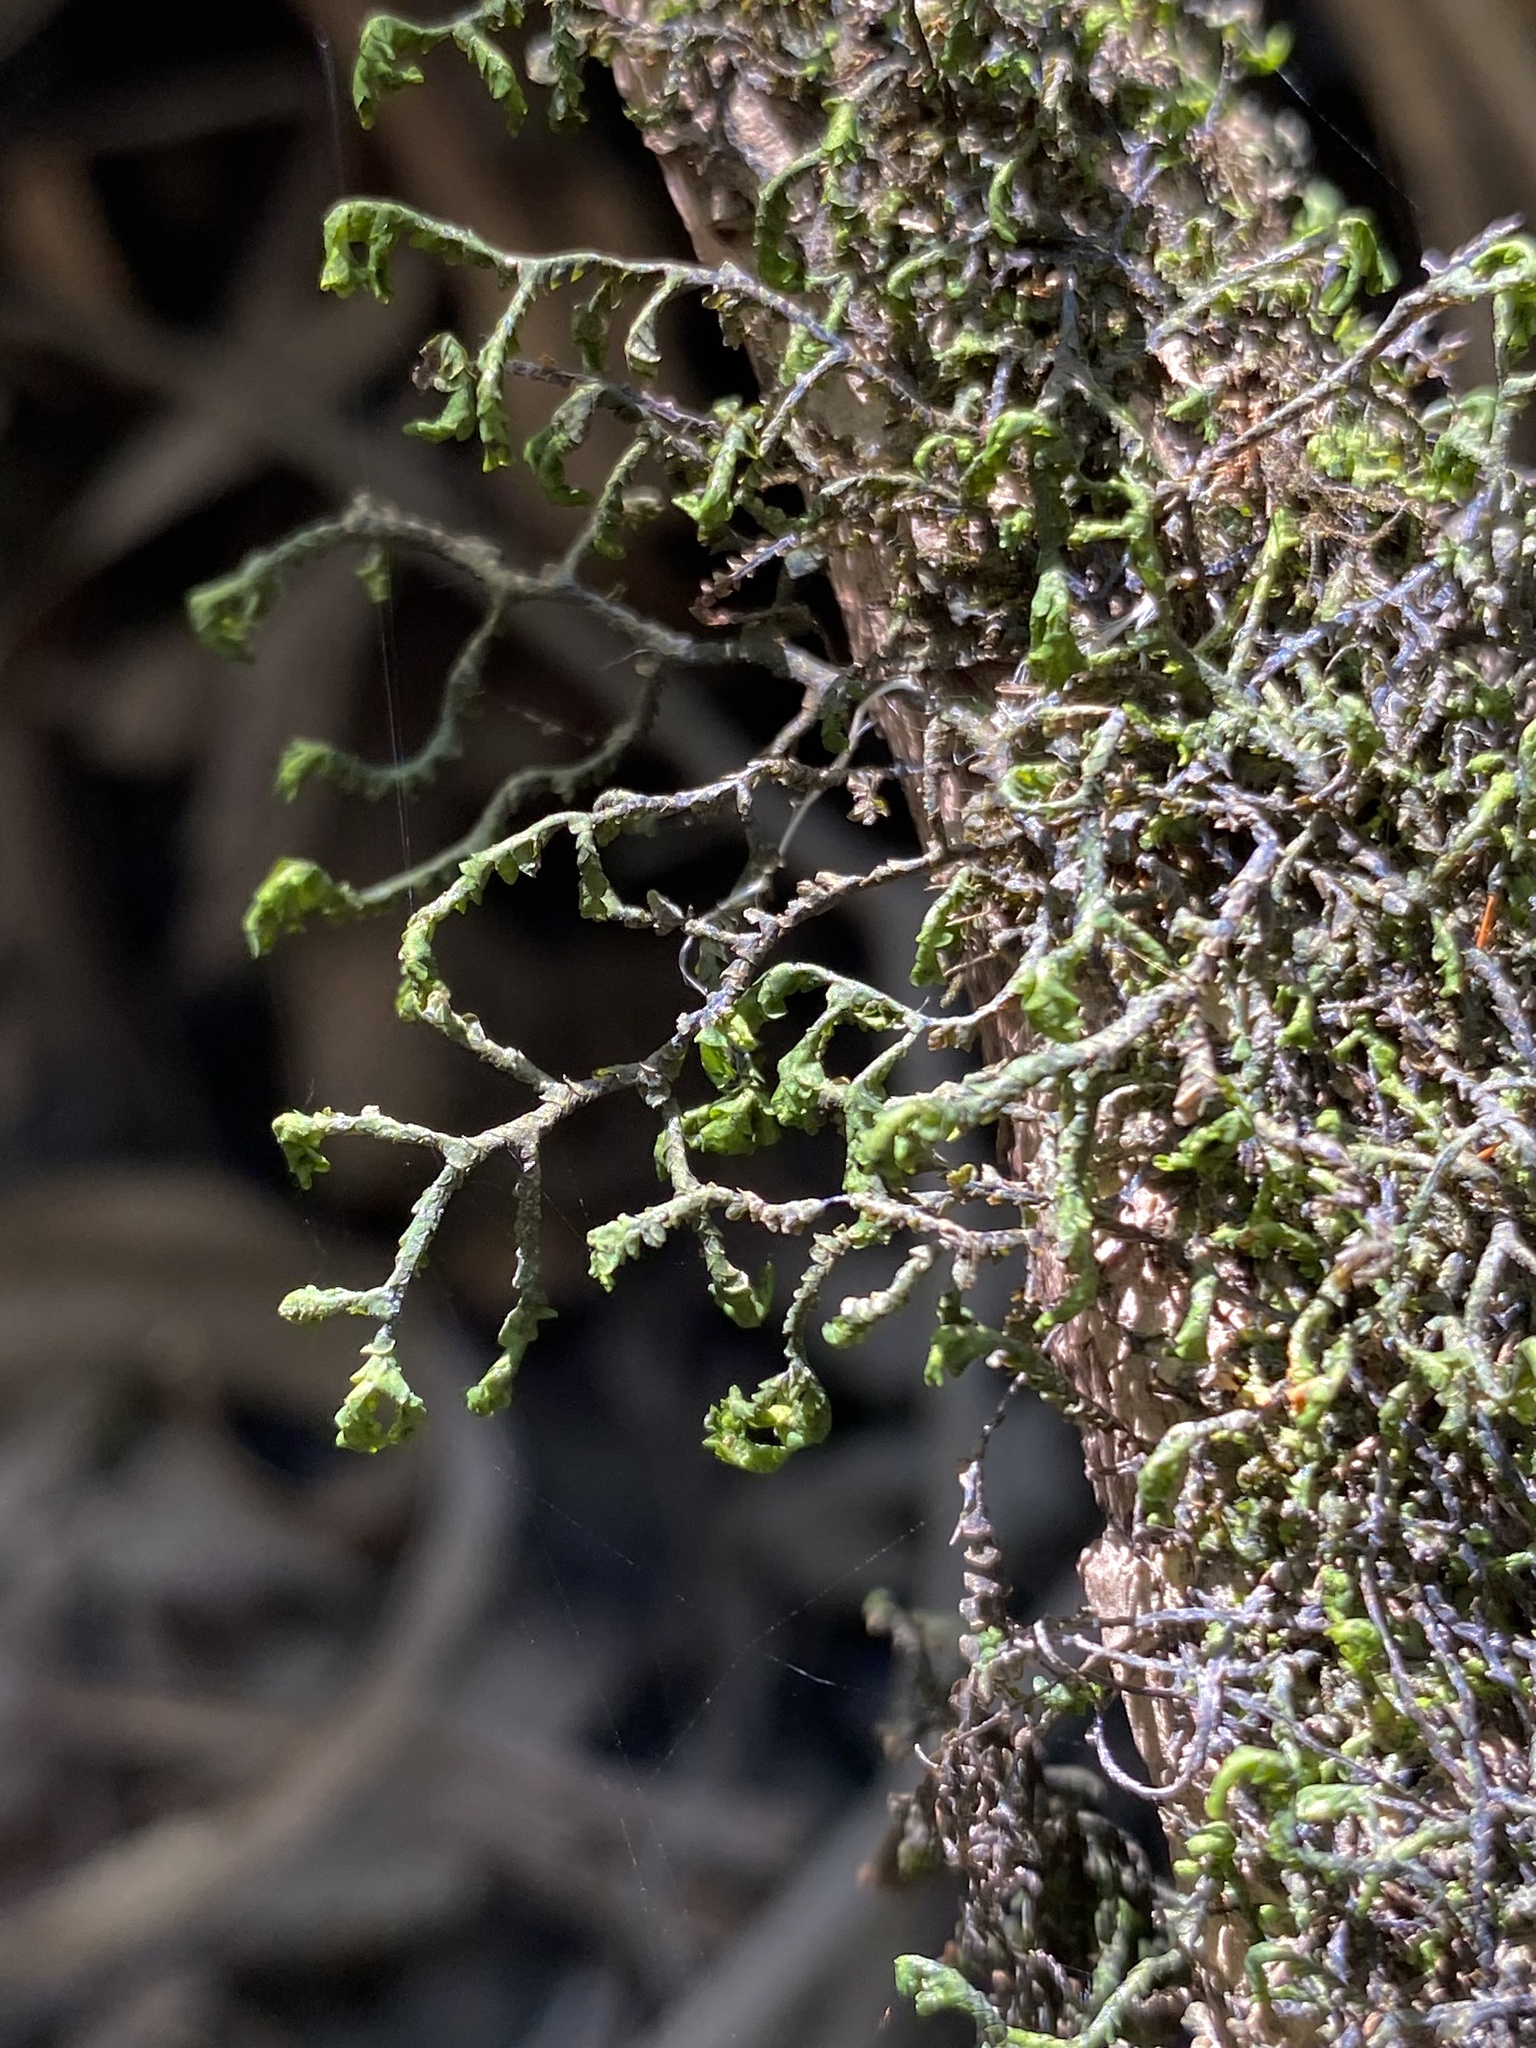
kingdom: Plantae
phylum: Marchantiophyta
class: Jungermanniopsida
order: Porellales
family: Porellaceae
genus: Porella
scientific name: Porella pinnata
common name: Pinnate scalewort
